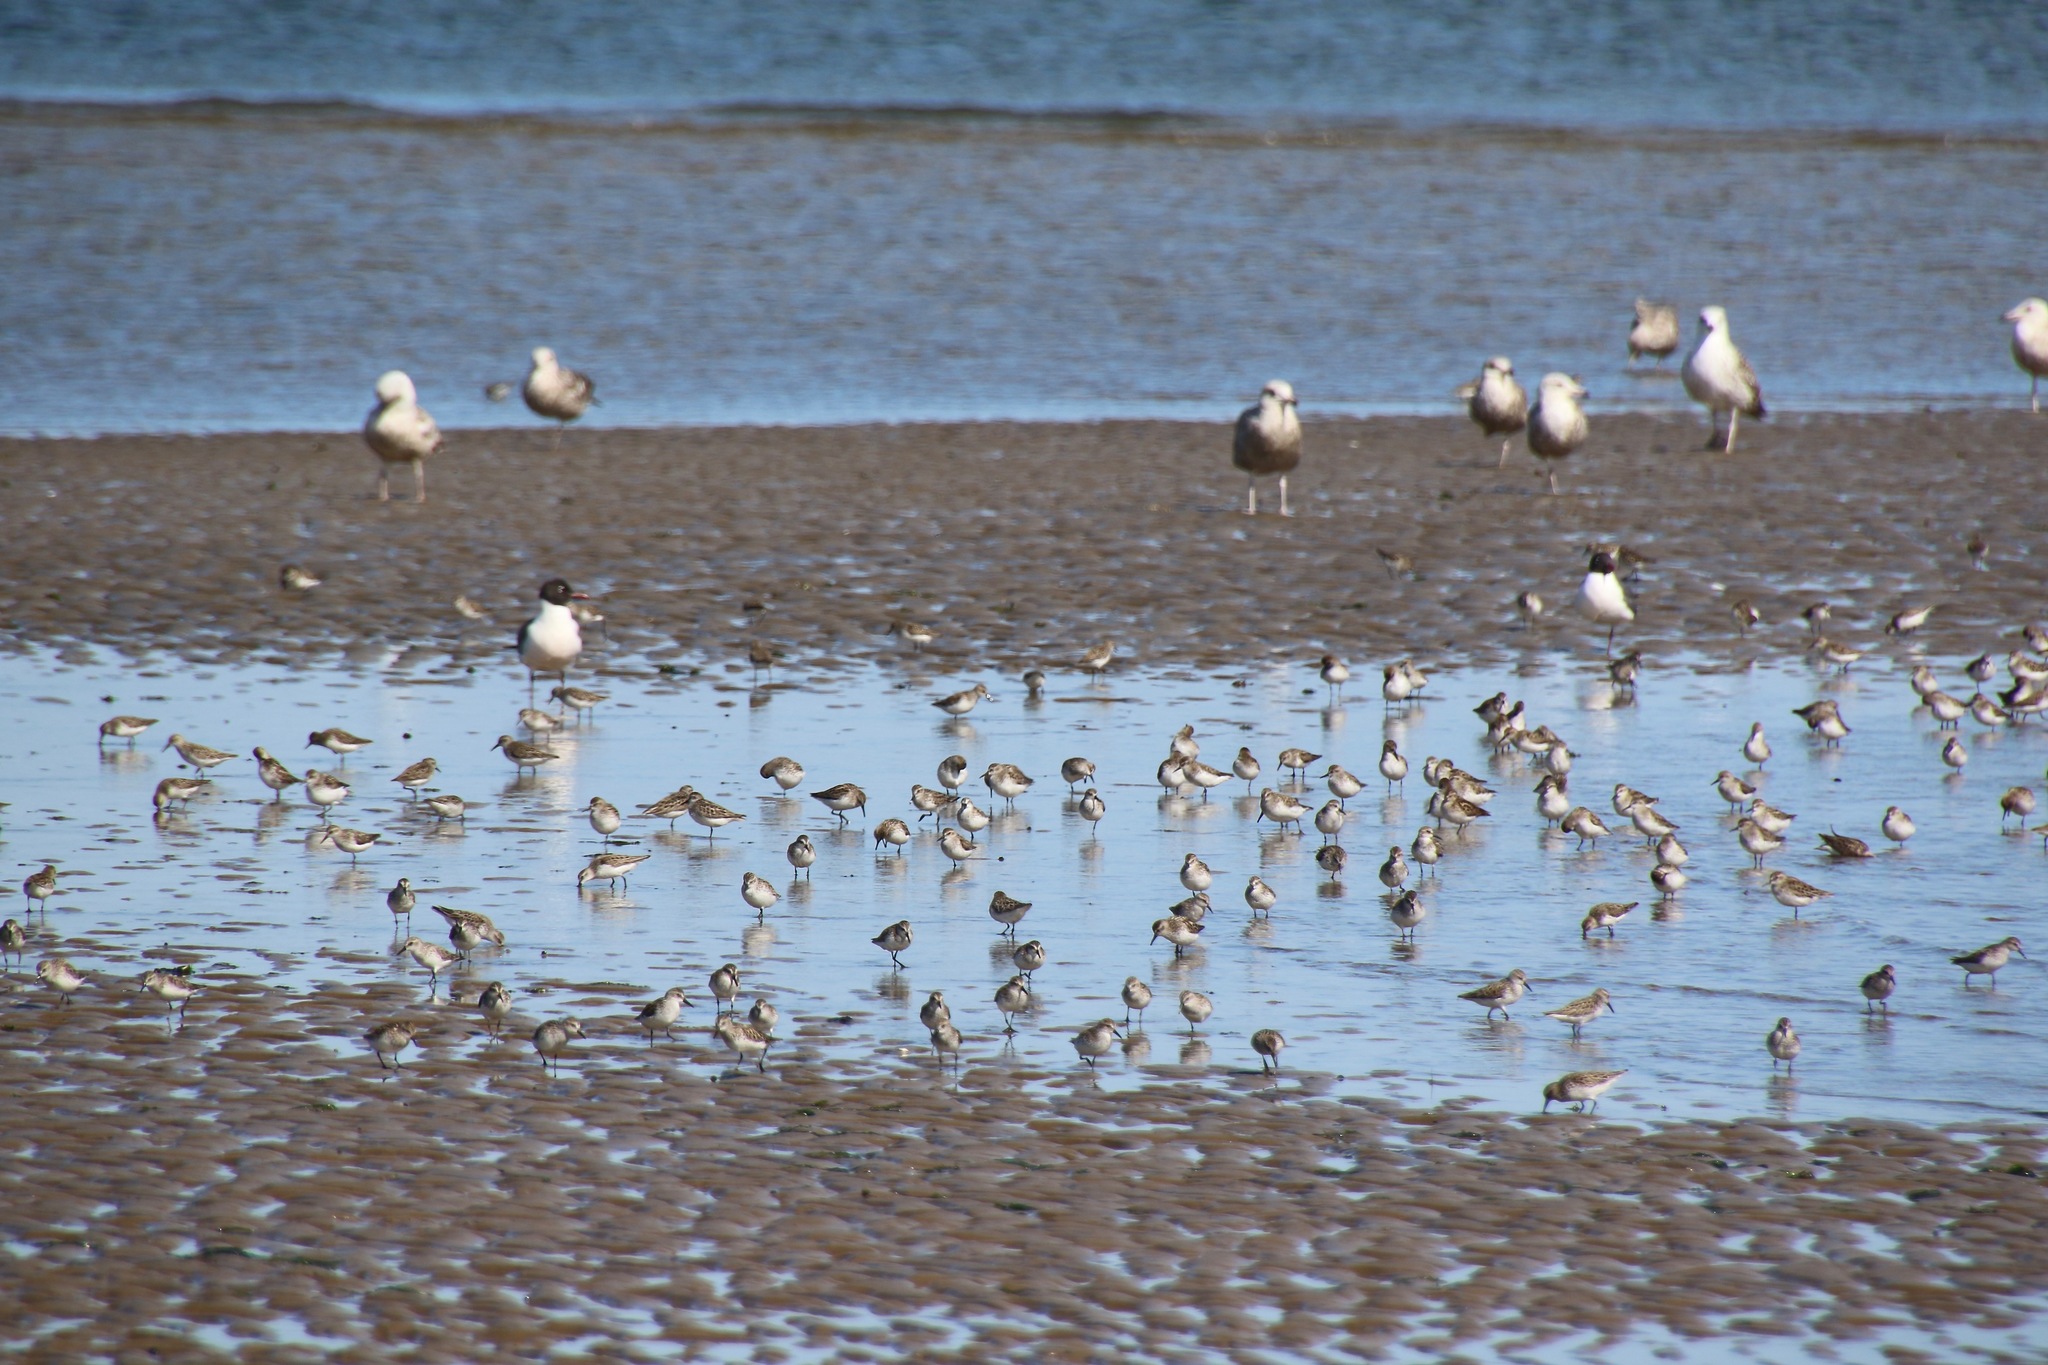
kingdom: Animalia
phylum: Chordata
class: Aves
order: Charadriiformes
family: Scolopacidae
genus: Calidris
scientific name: Calidris pusilla
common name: Semipalmated sandpiper
